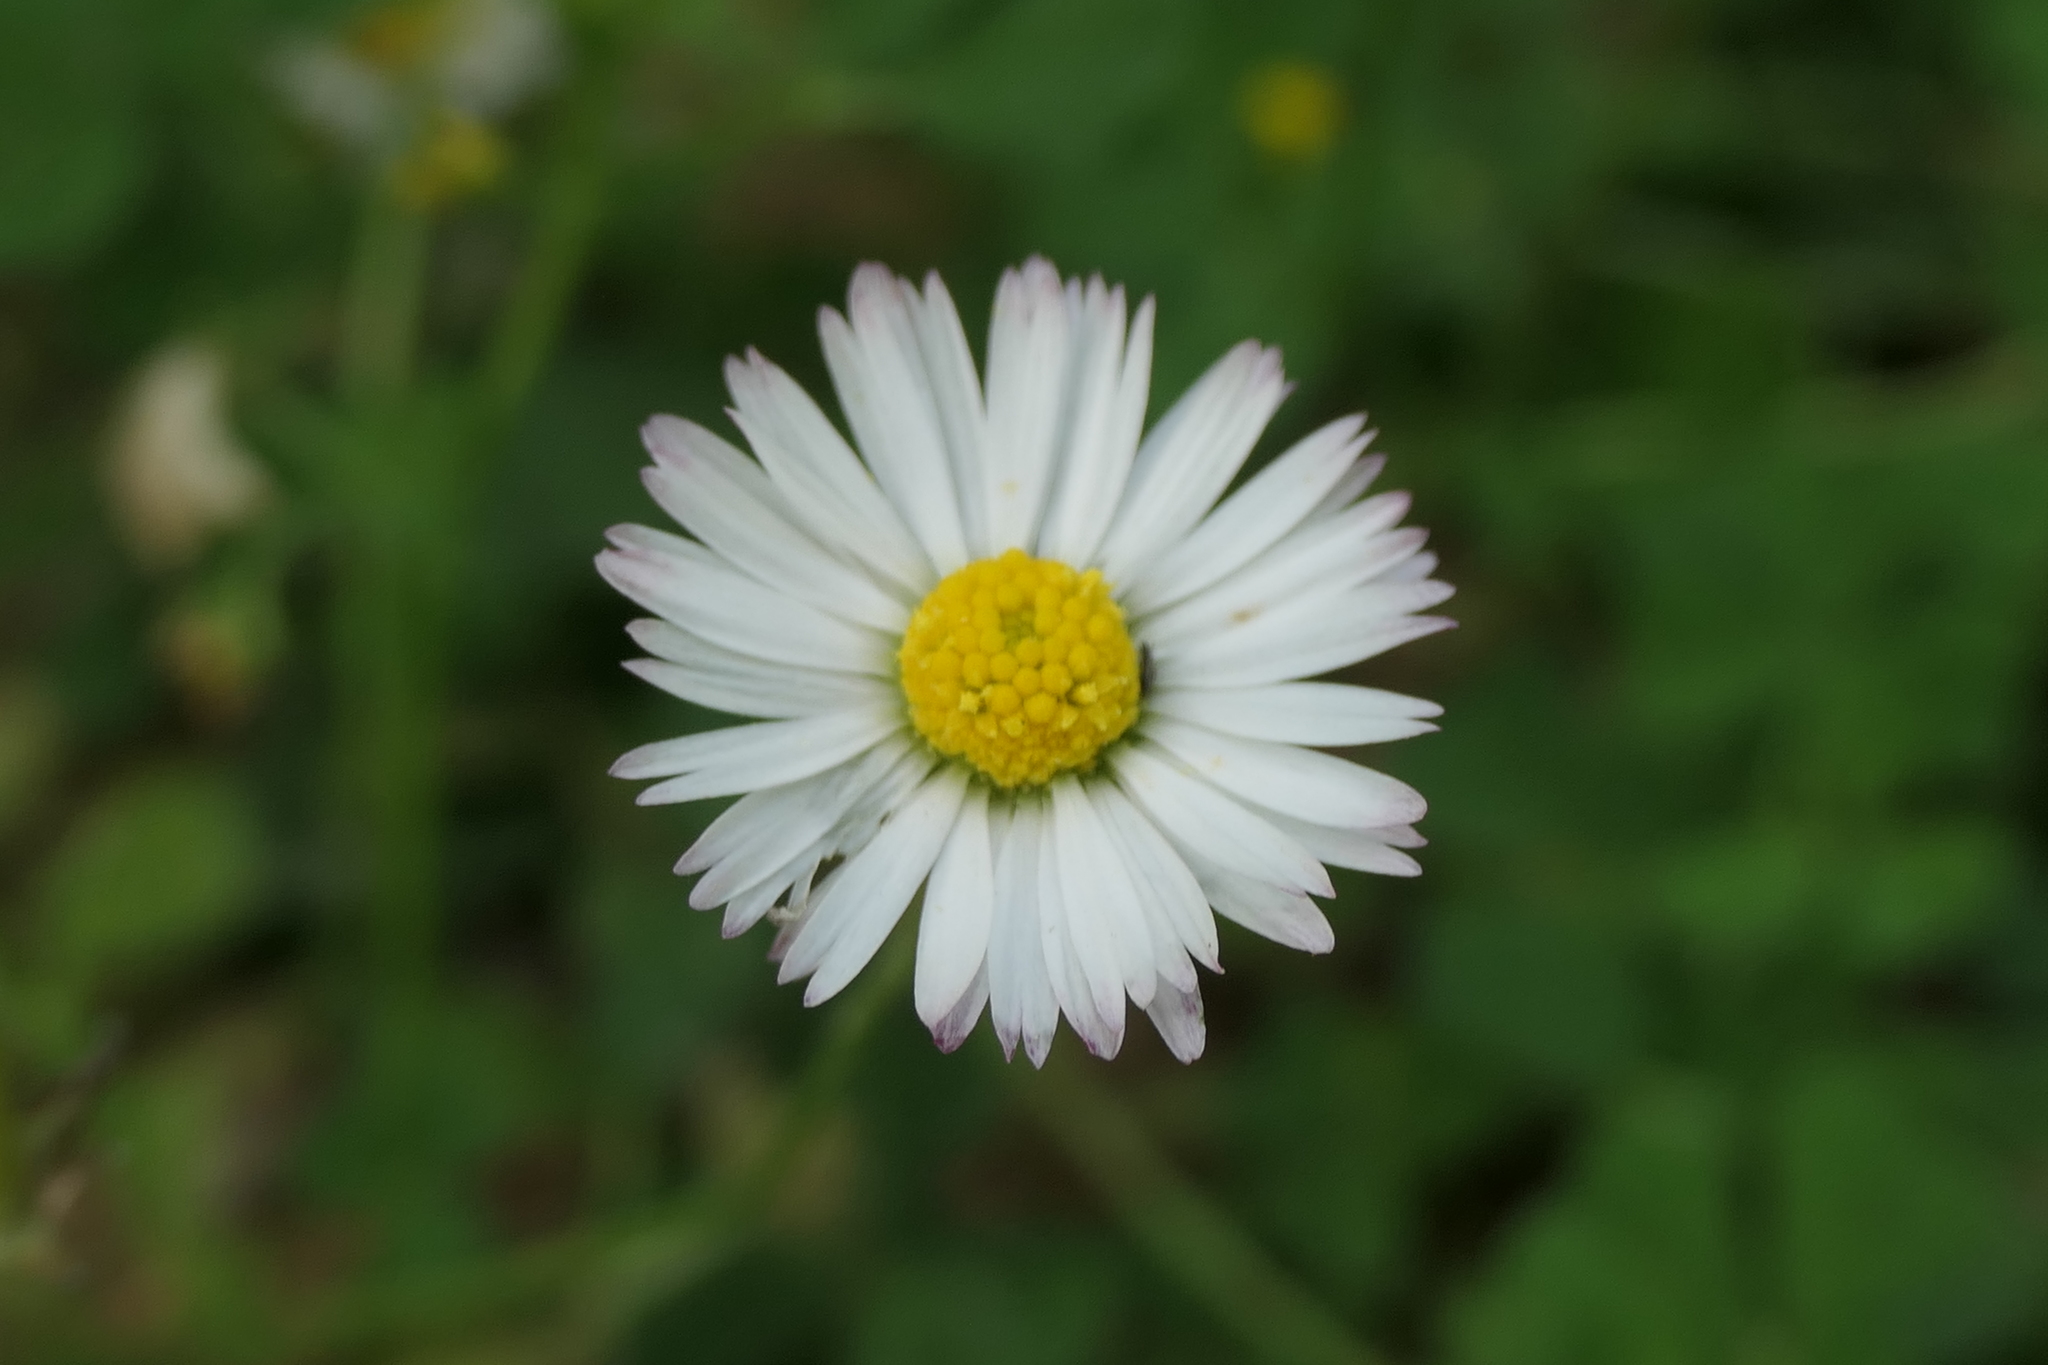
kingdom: Plantae
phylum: Tracheophyta
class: Magnoliopsida
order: Asterales
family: Asteraceae
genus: Bellis
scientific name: Bellis perennis
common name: Lawndaisy
